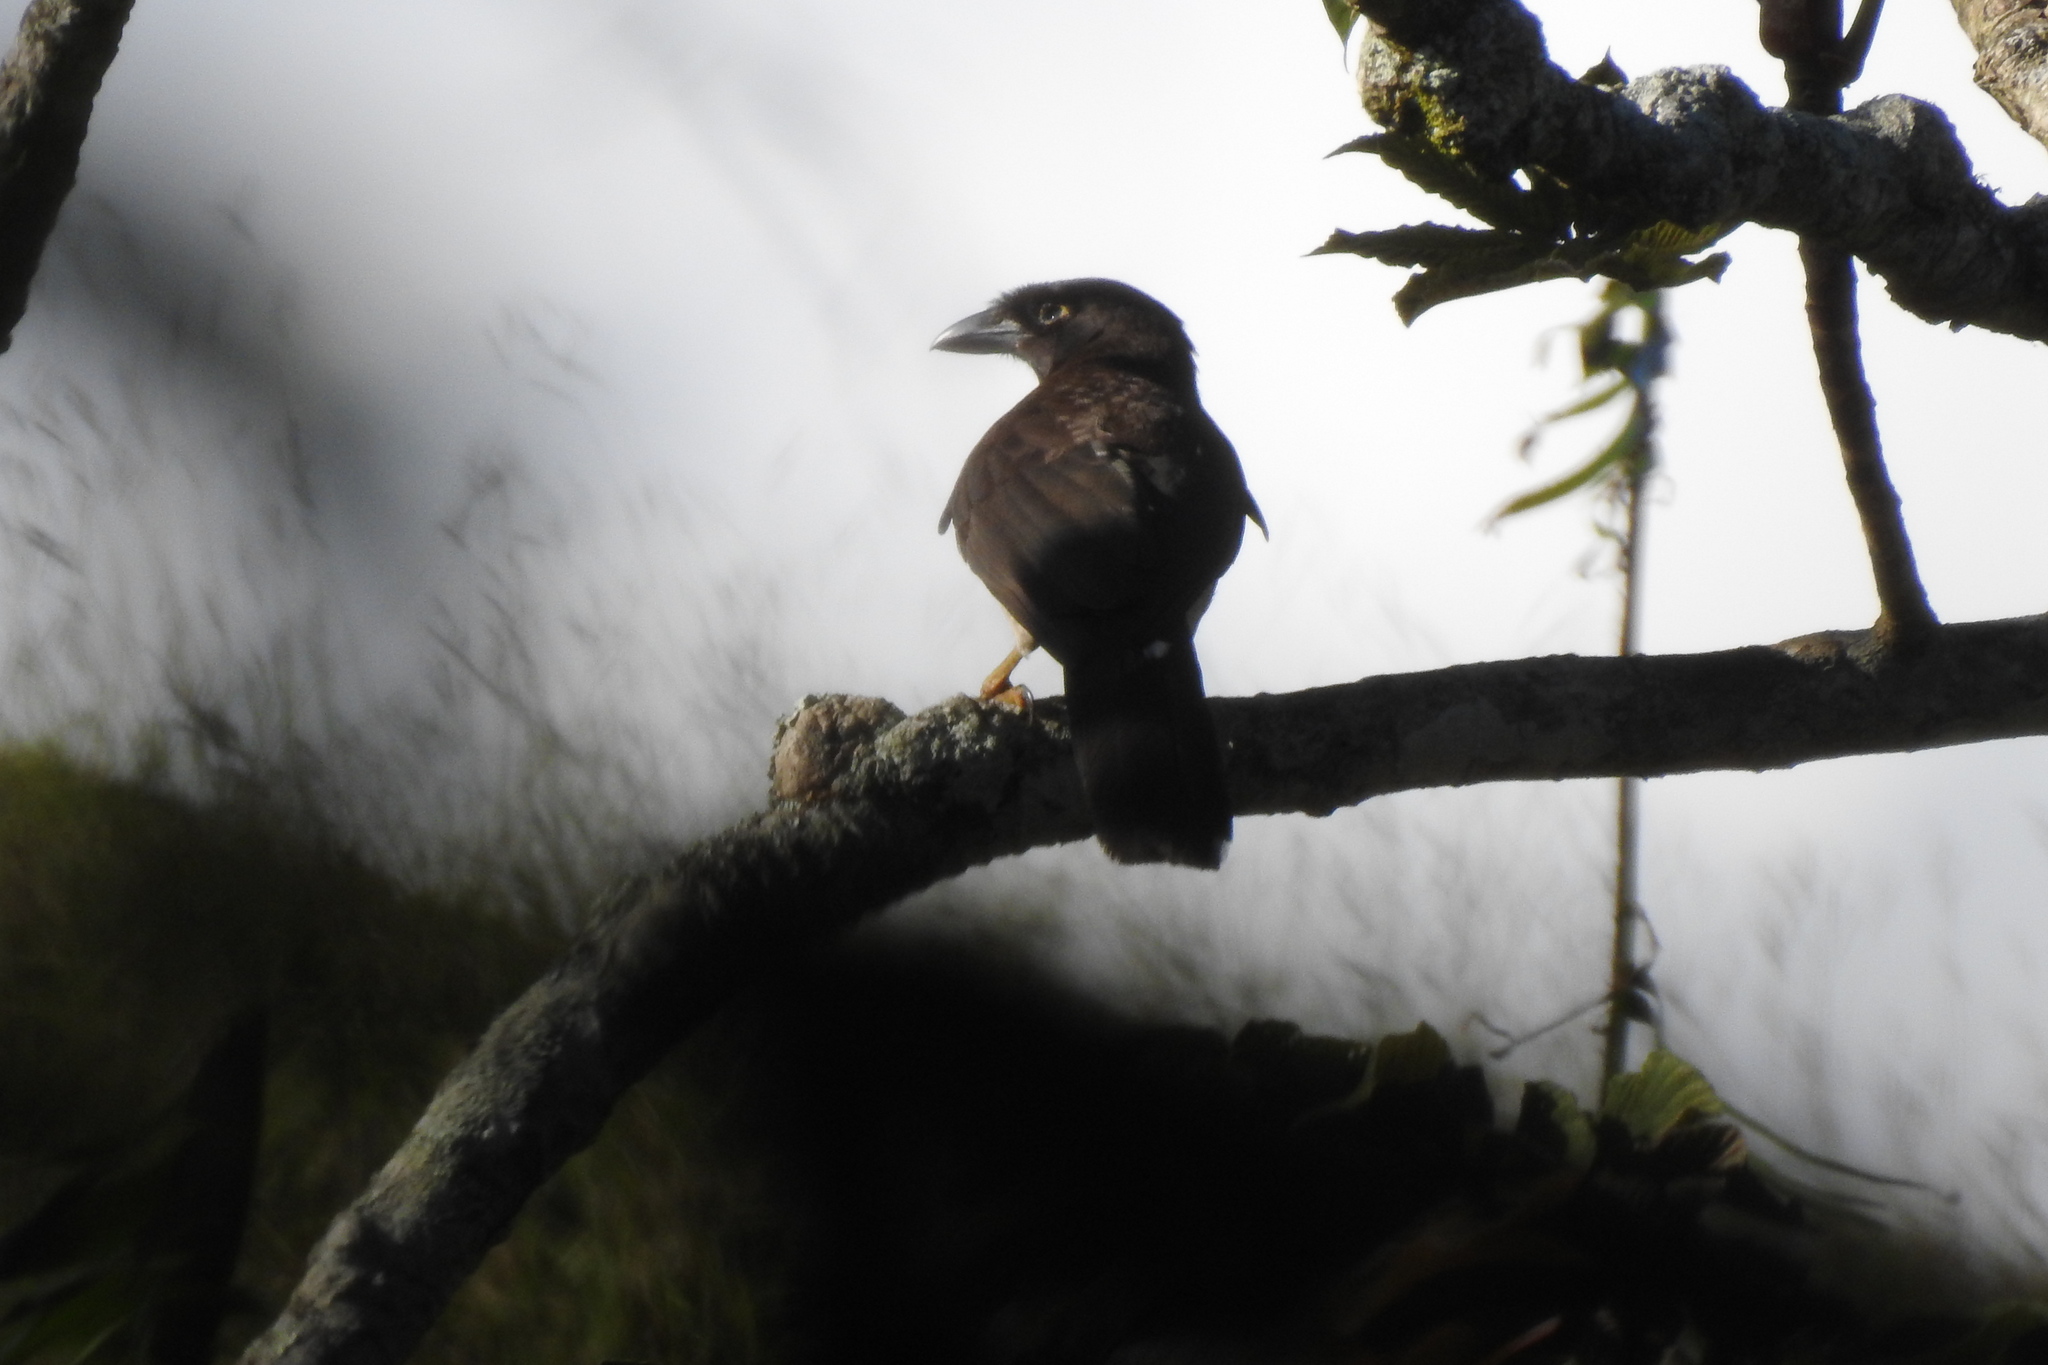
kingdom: Animalia
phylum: Chordata
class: Aves
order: Passeriformes
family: Corvidae
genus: Psilorhinus
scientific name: Psilorhinus morio
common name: Brown jay
